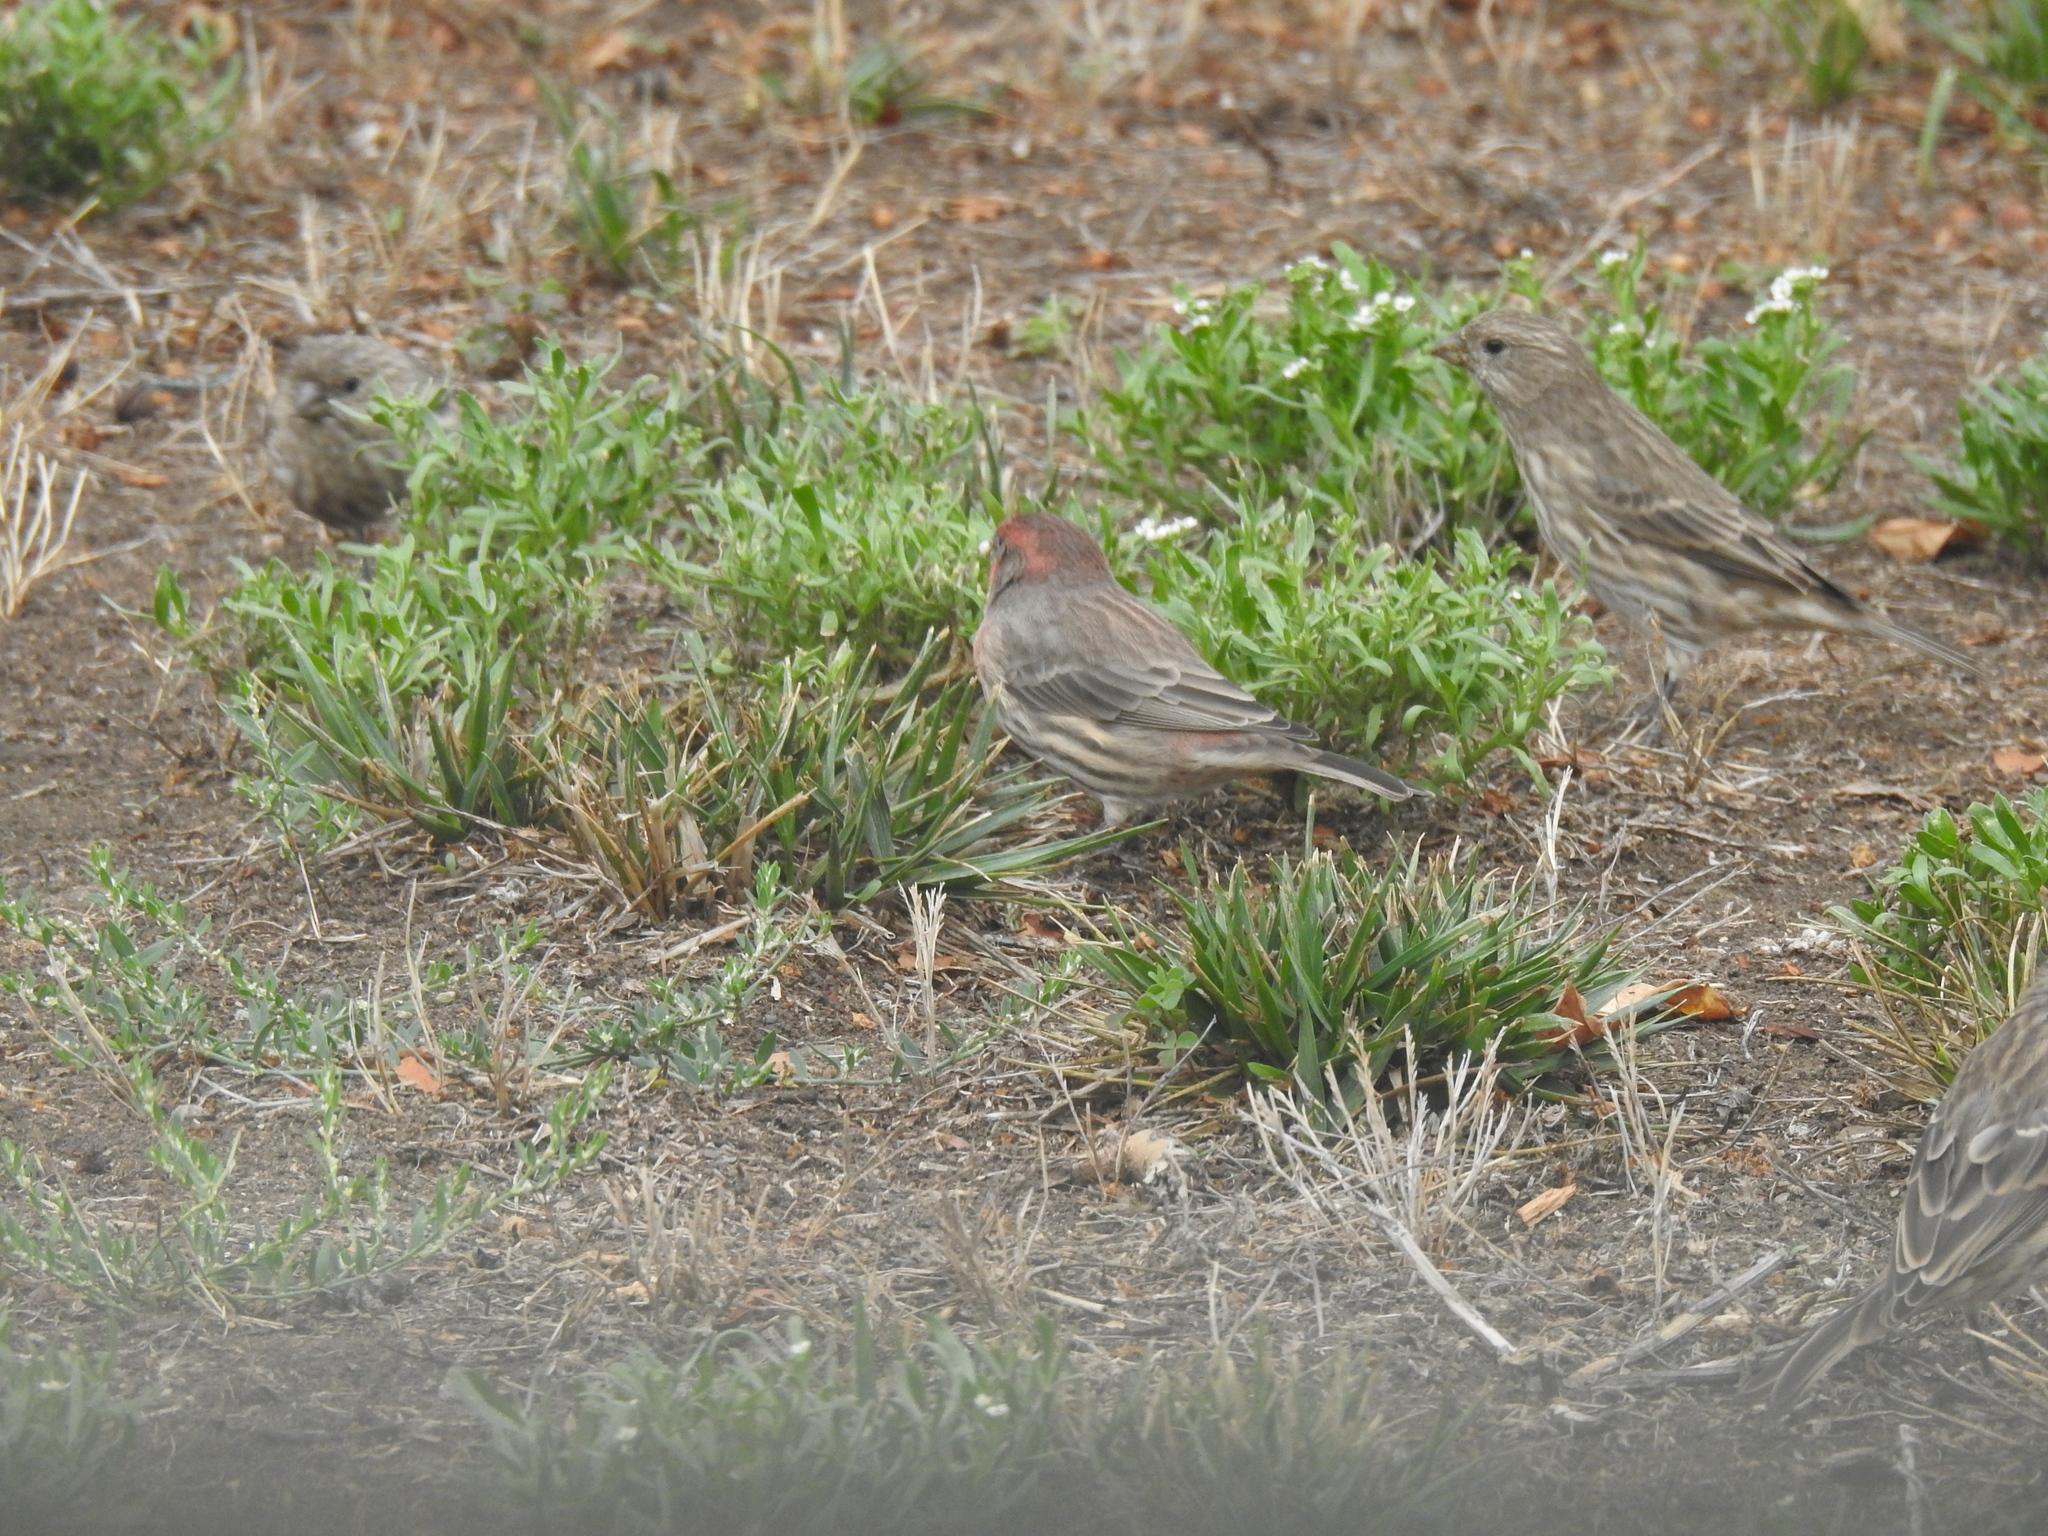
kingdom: Animalia
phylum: Chordata
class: Aves
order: Passeriformes
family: Fringillidae
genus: Haemorhous
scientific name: Haemorhous mexicanus
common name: House finch
